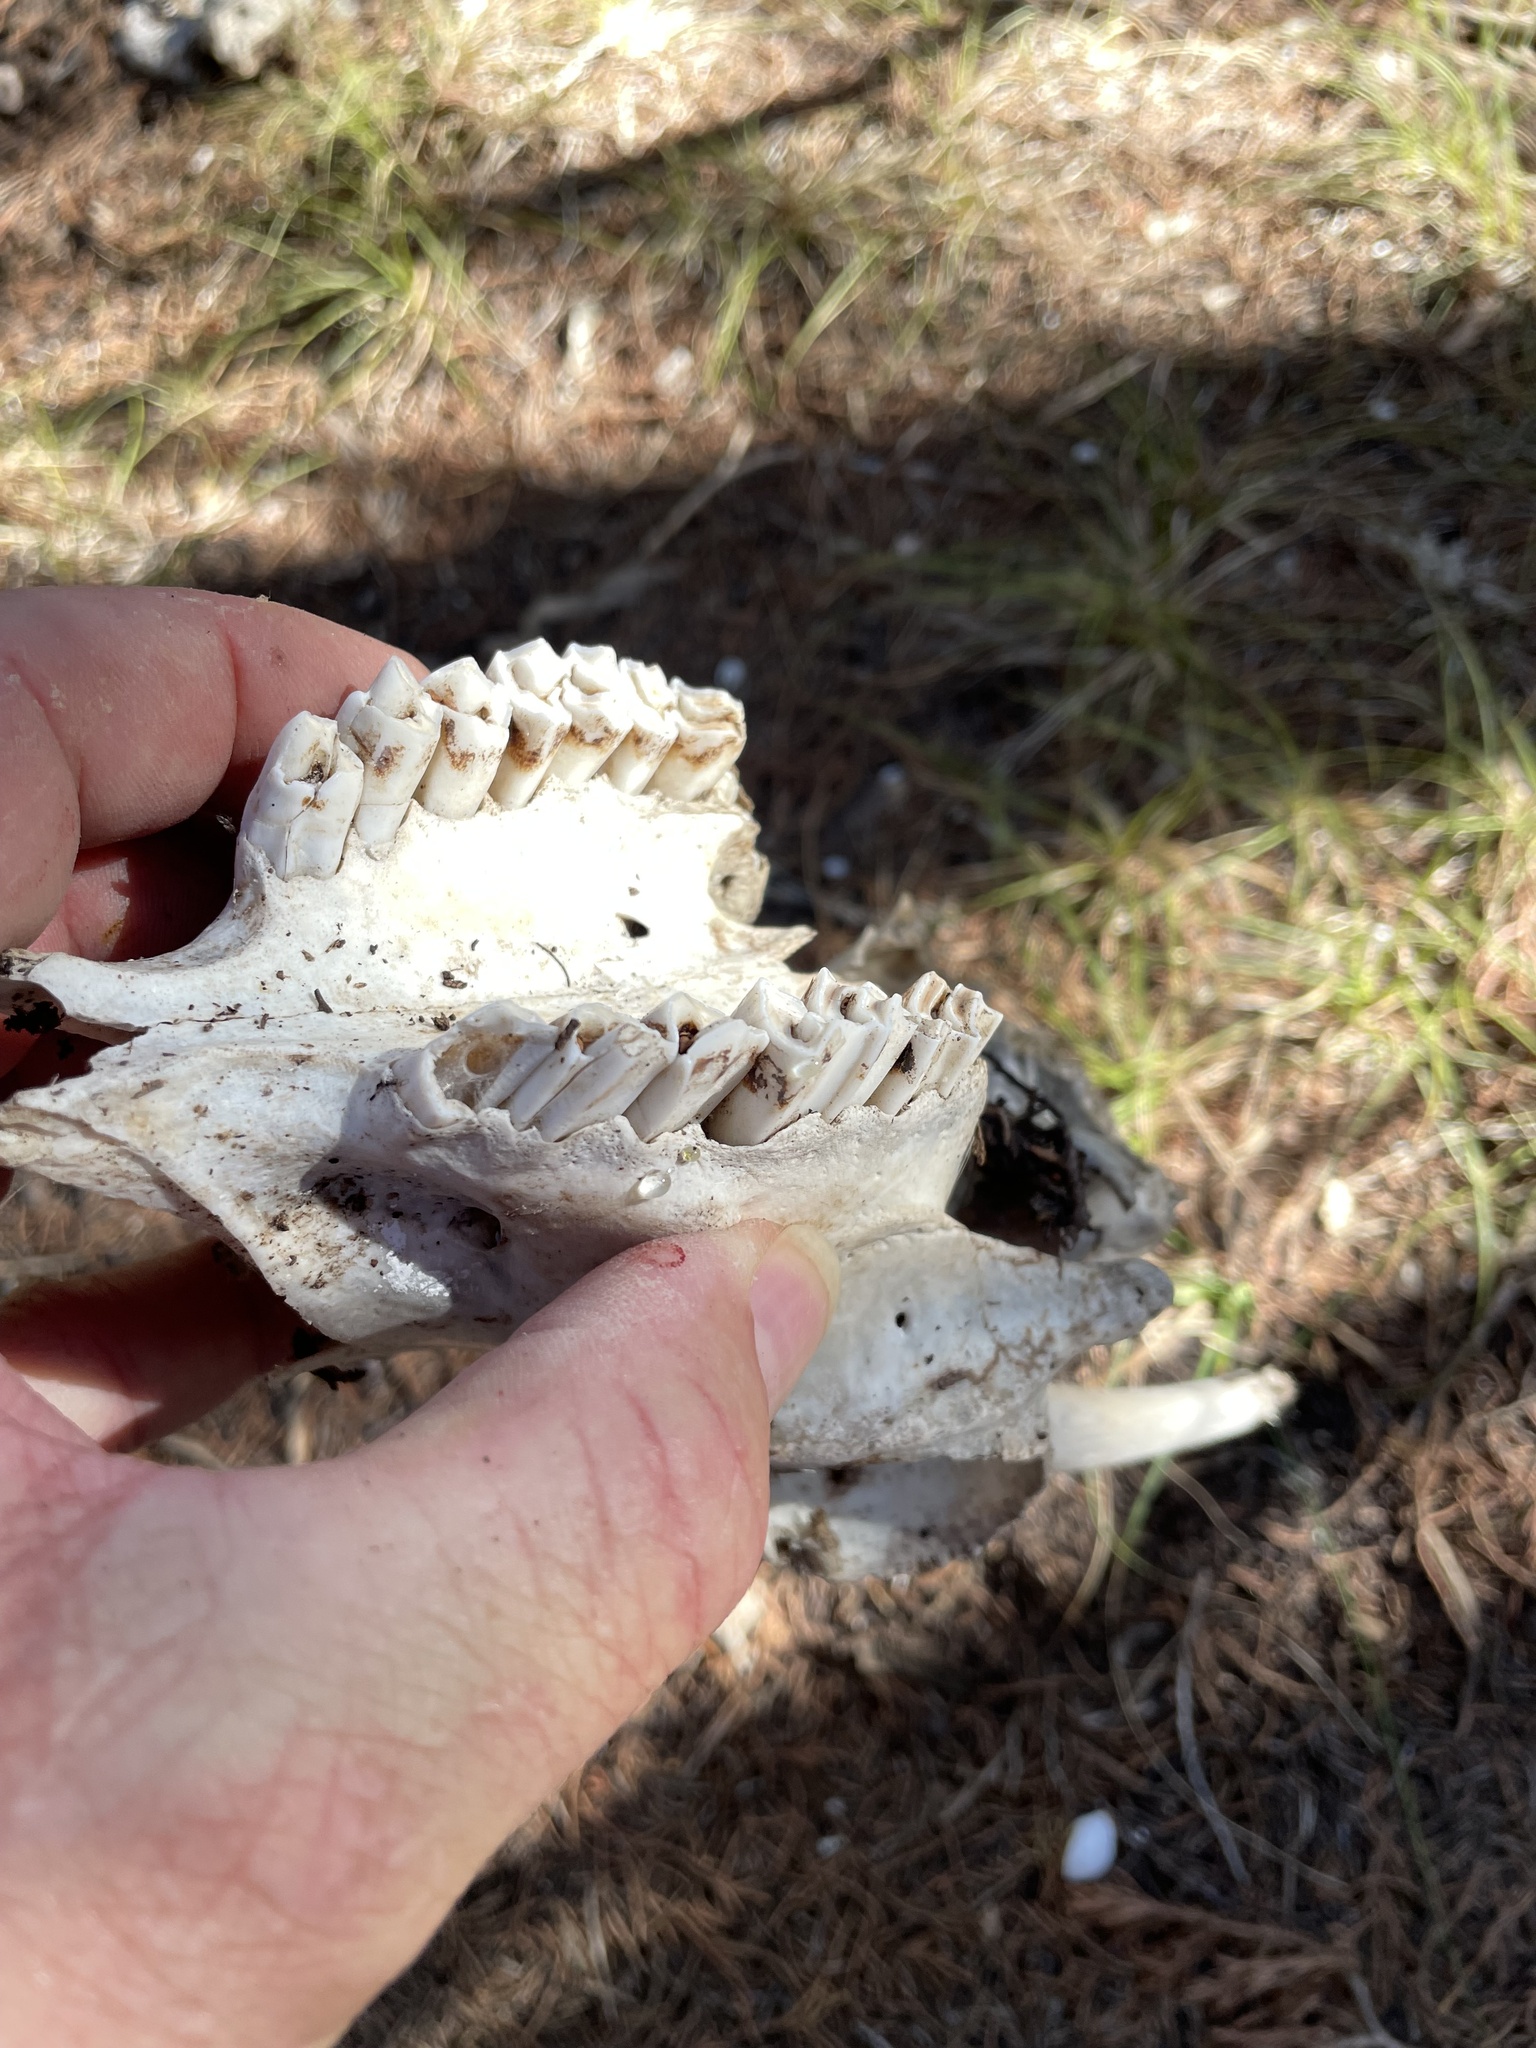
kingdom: Animalia
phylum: Chordata
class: Mammalia
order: Artiodactyla
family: Bovidae
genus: Capra
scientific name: Capra hircus
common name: Domestic goat
